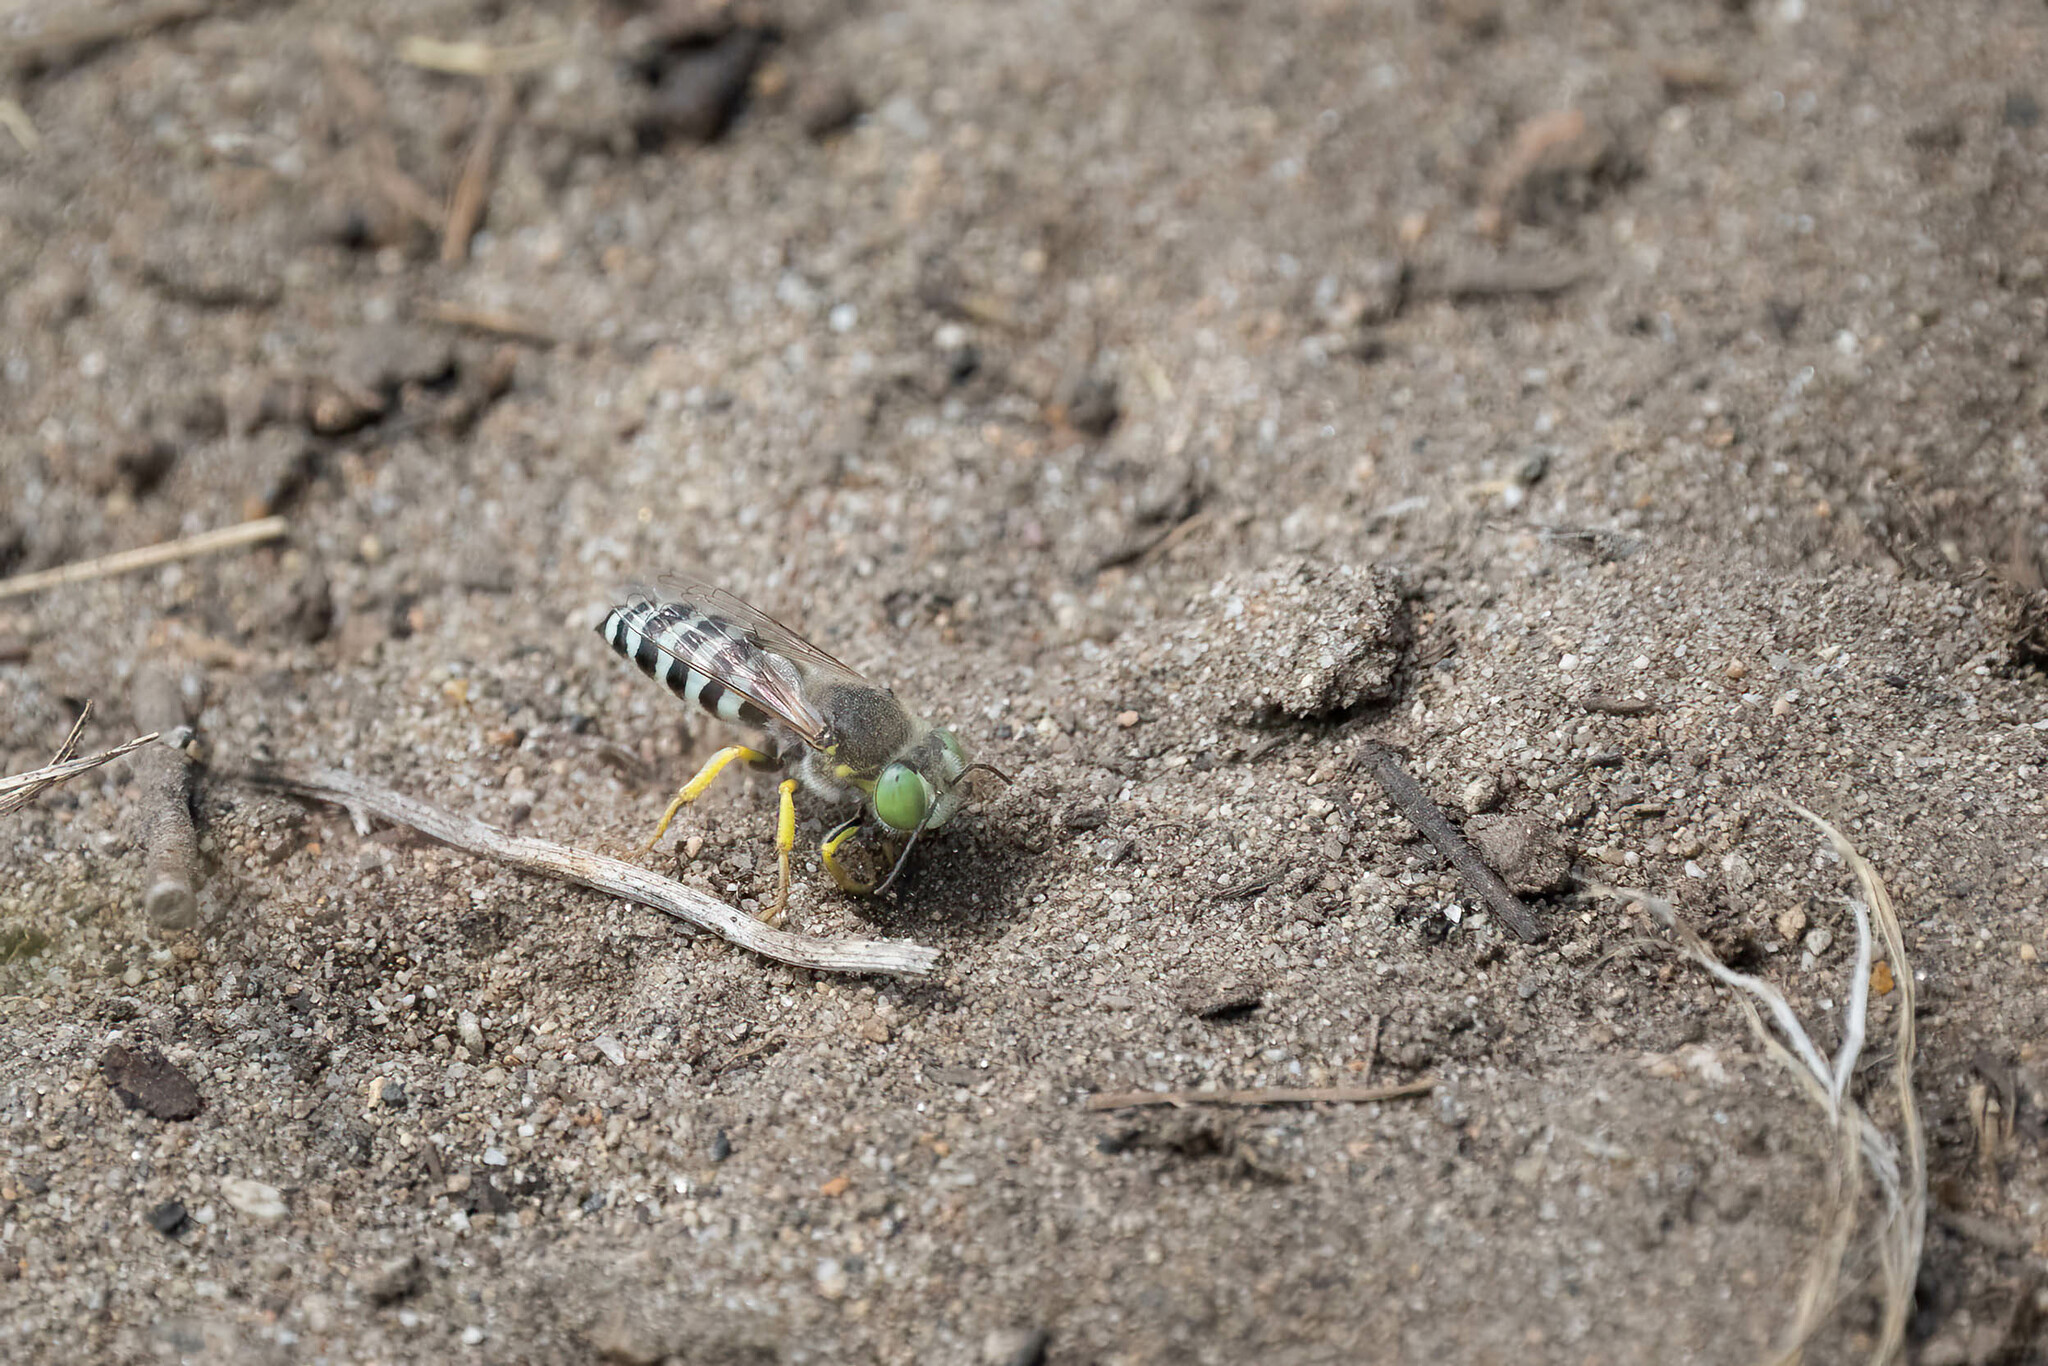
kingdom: Animalia
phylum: Arthropoda
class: Insecta
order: Hymenoptera
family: Crabronidae
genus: Bembix
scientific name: Bembix americana
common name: American sand wasp
